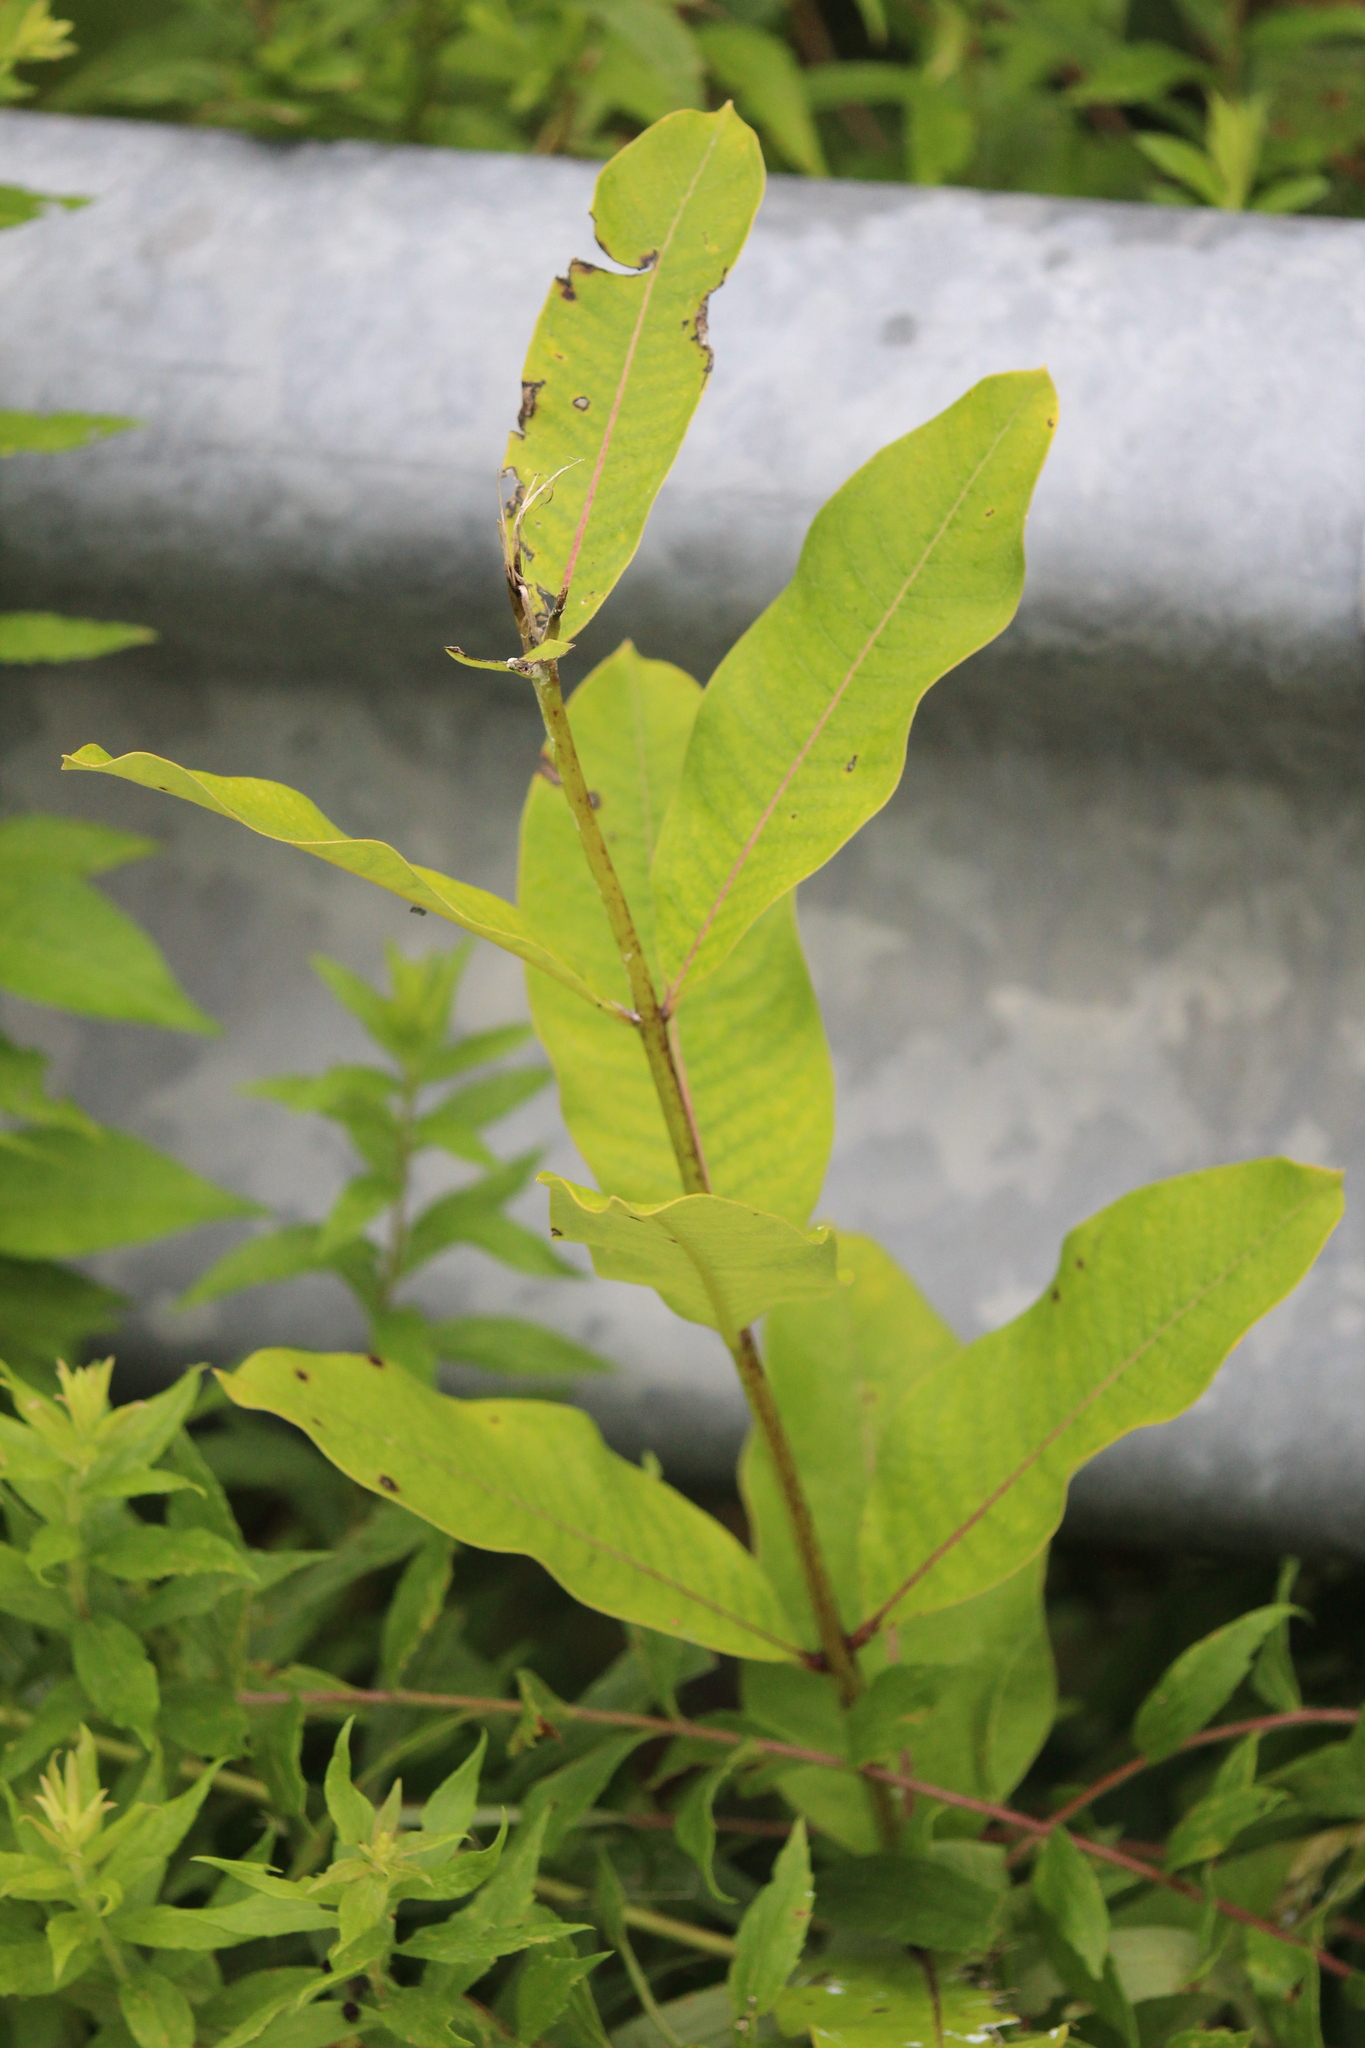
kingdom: Plantae
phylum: Tracheophyta
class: Magnoliopsida
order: Gentianales
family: Apocynaceae
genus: Asclepias
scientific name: Asclepias syriaca
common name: Common milkweed
